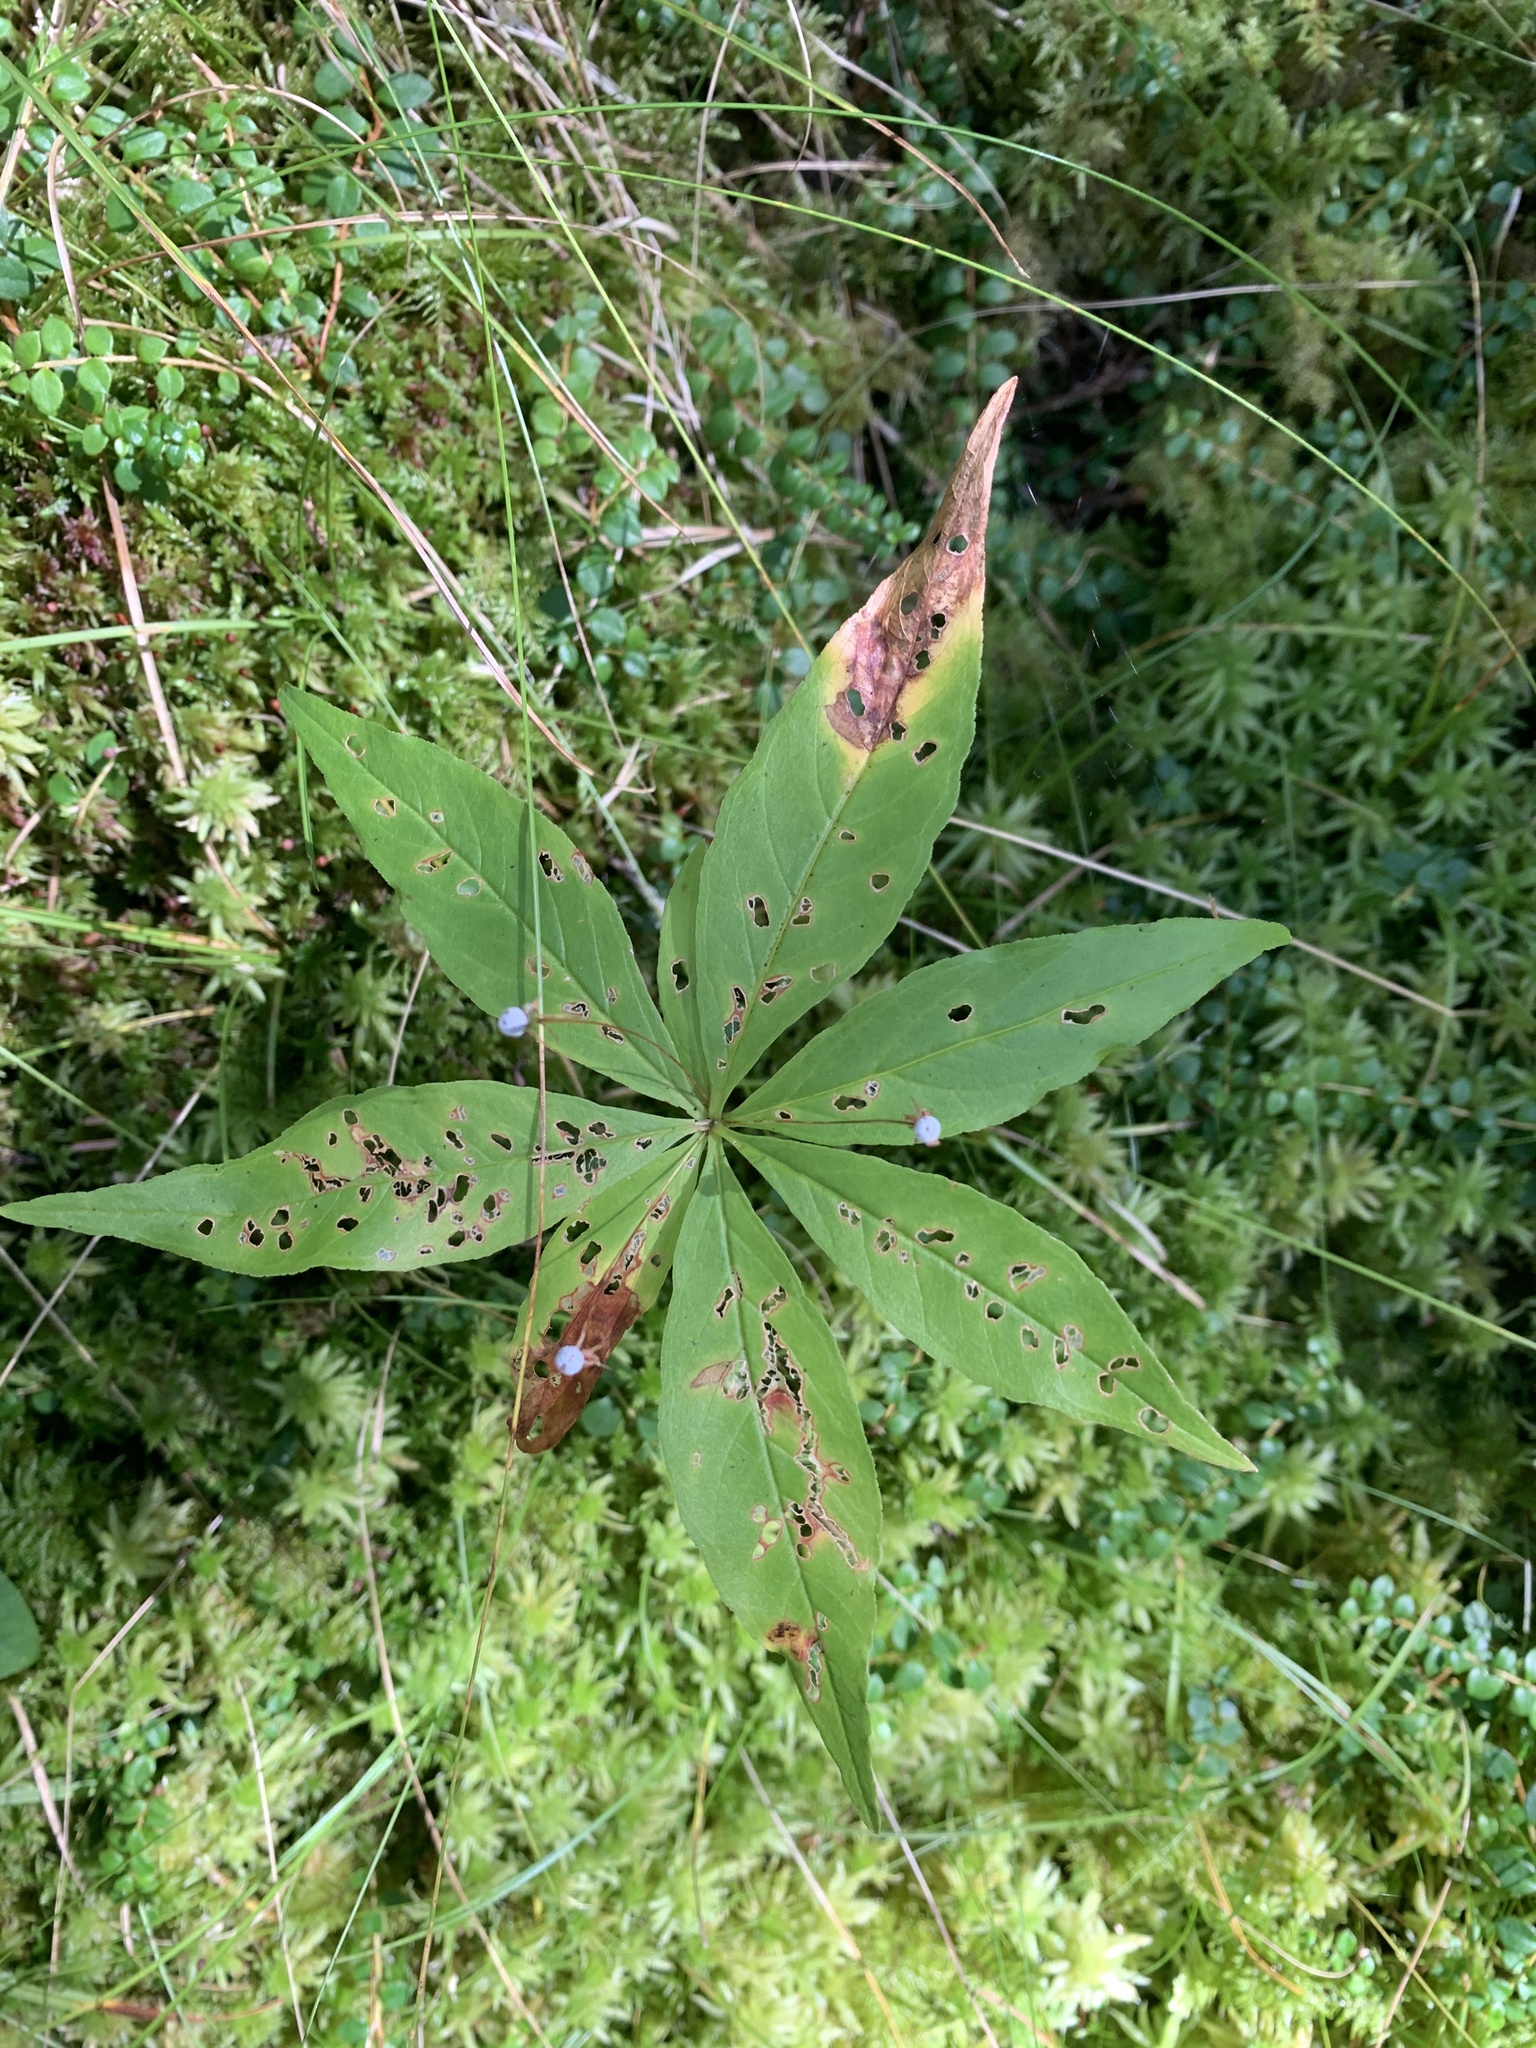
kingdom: Plantae
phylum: Tracheophyta
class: Magnoliopsida
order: Ericales
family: Primulaceae
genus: Lysimachia
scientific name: Lysimachia borealis
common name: American starflower
